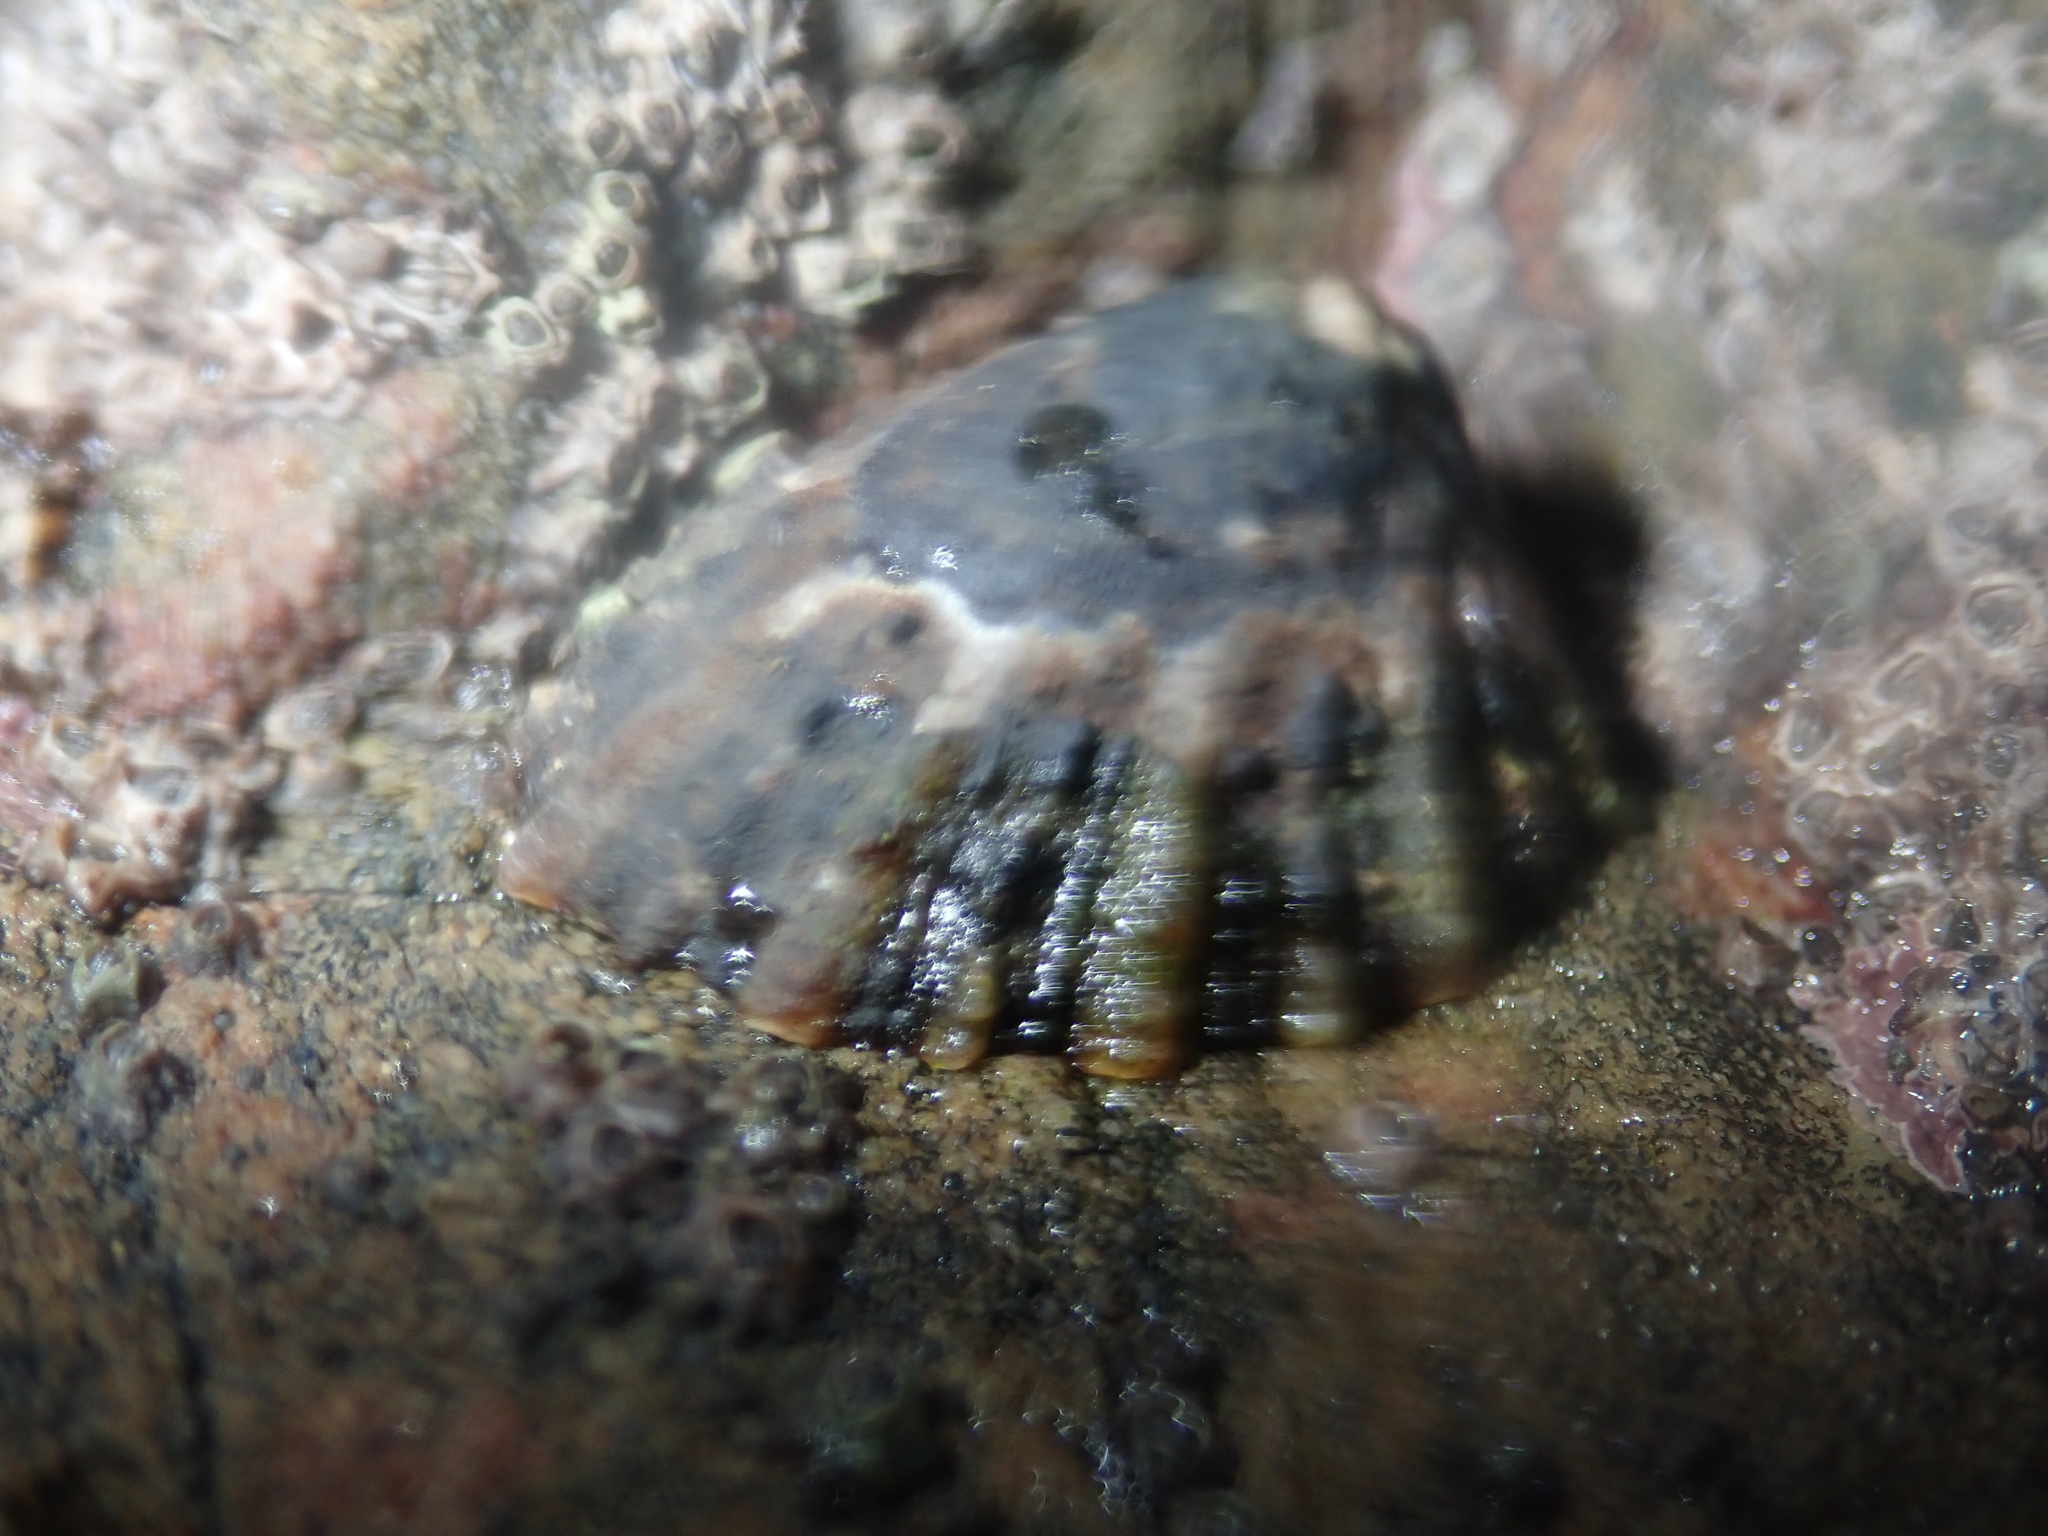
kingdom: Animalia
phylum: Mollusca
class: Gastropoda
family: Nacellidae
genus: Cellana
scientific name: Cellana ornata
